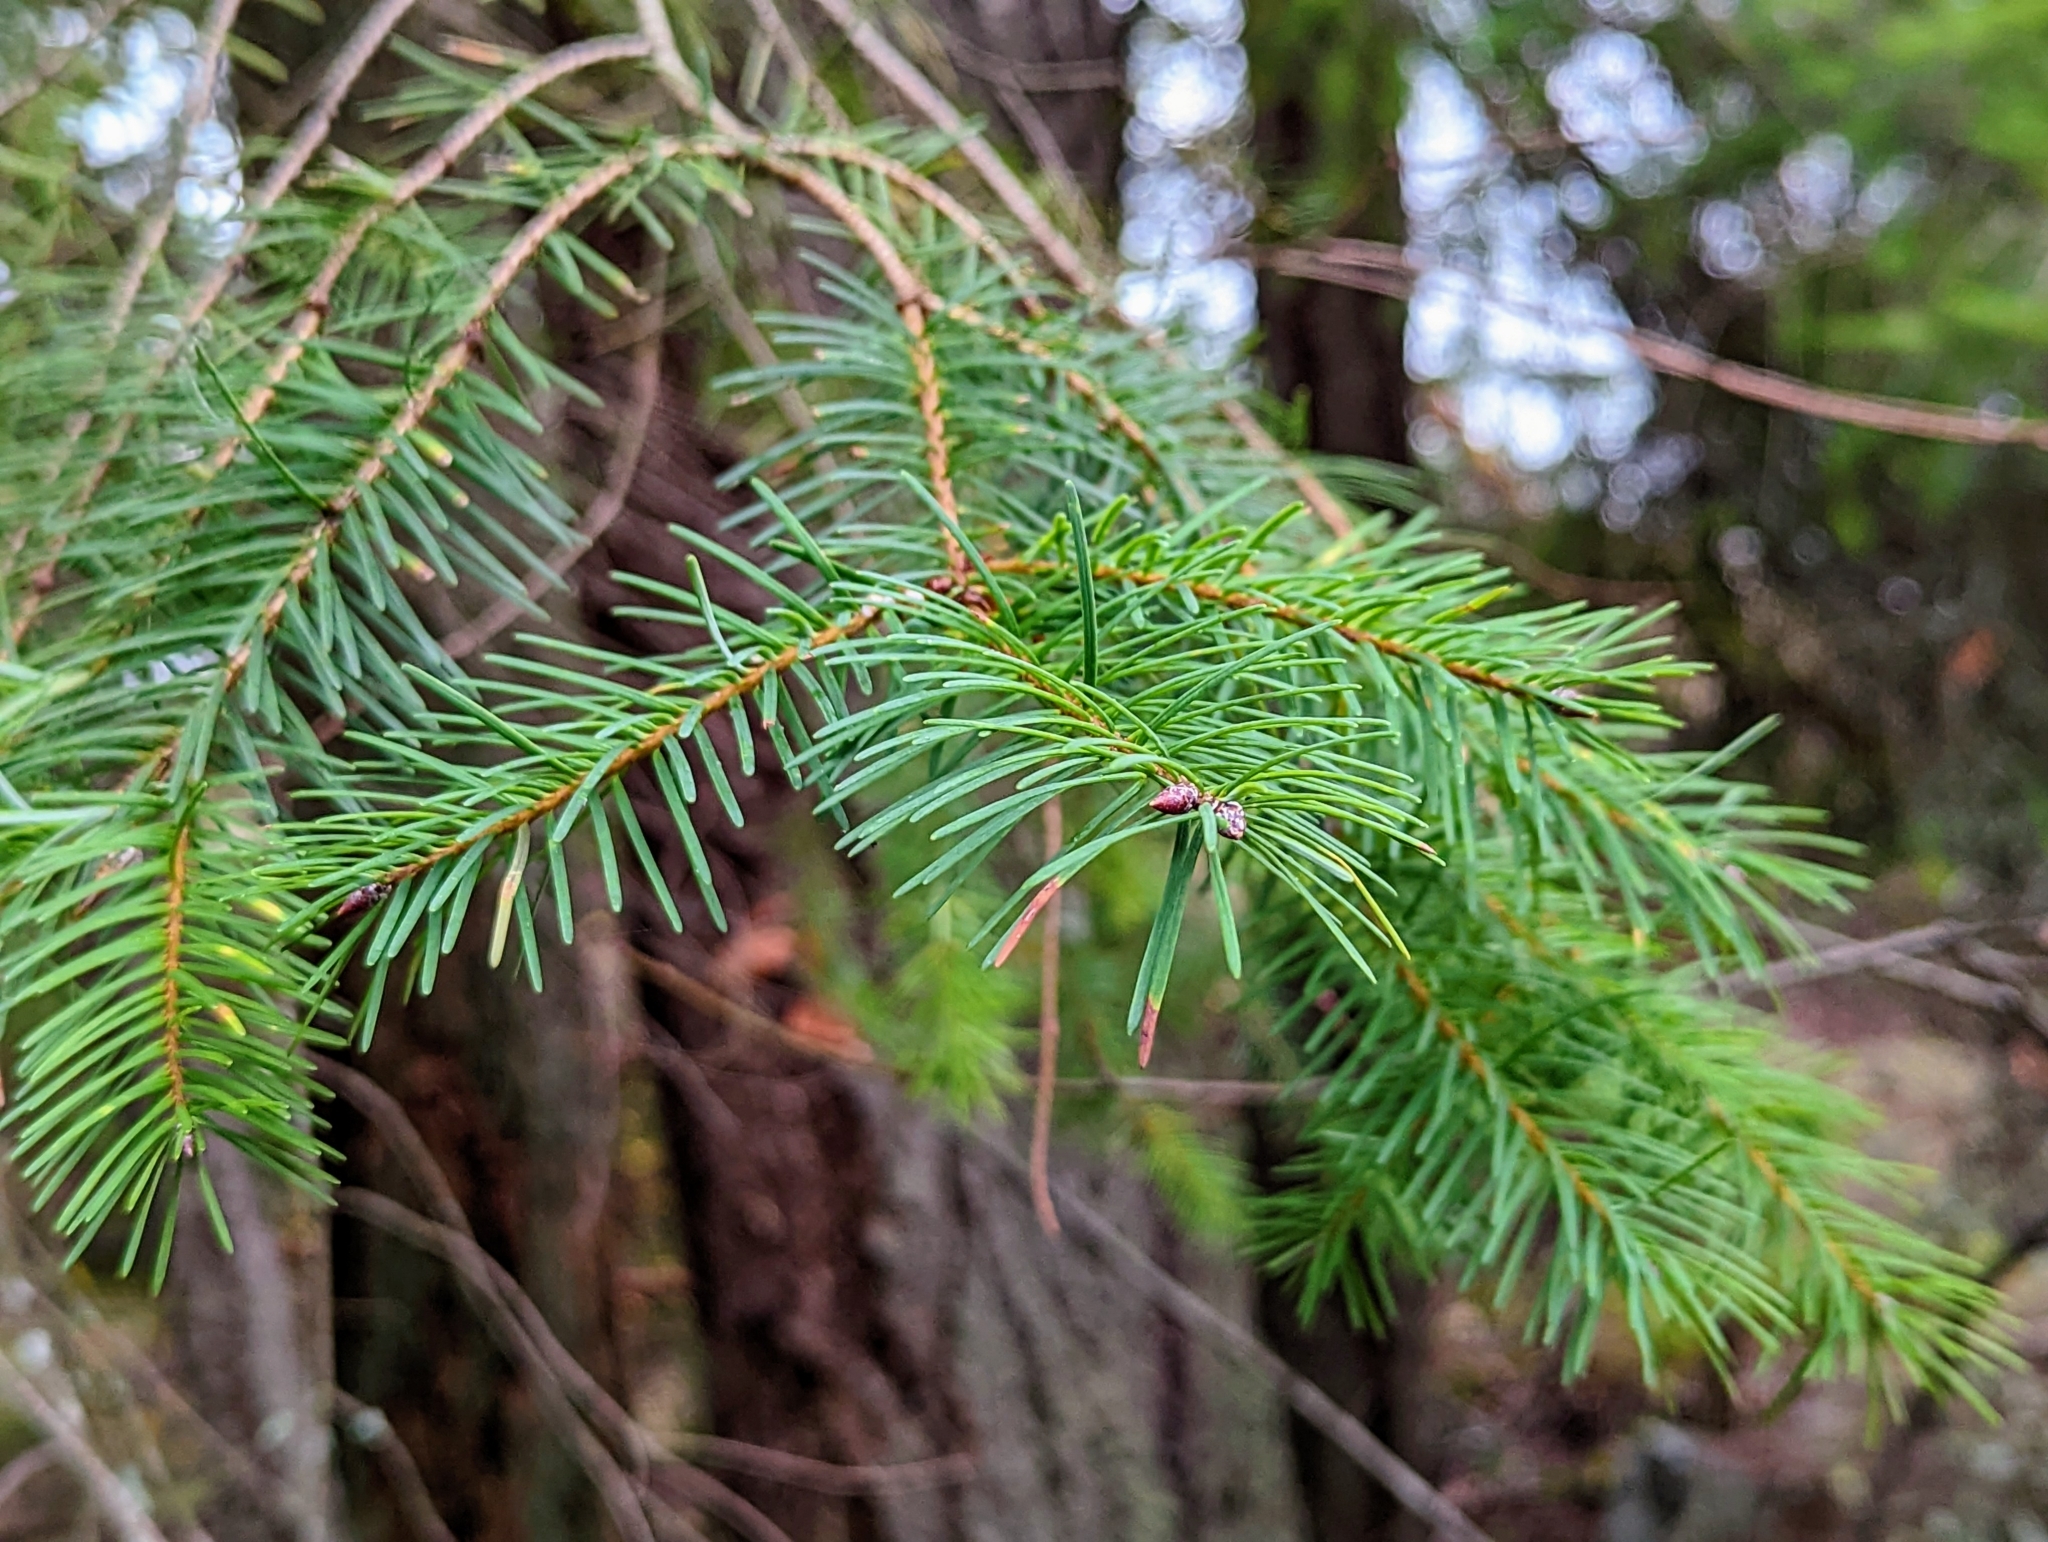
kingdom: Plantae
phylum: Tracheophyta
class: Pinopsida
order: Pinales
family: Pinaceae
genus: Pseudotsuga
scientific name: Pseudotsuga menziesii
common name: Douglas fir
